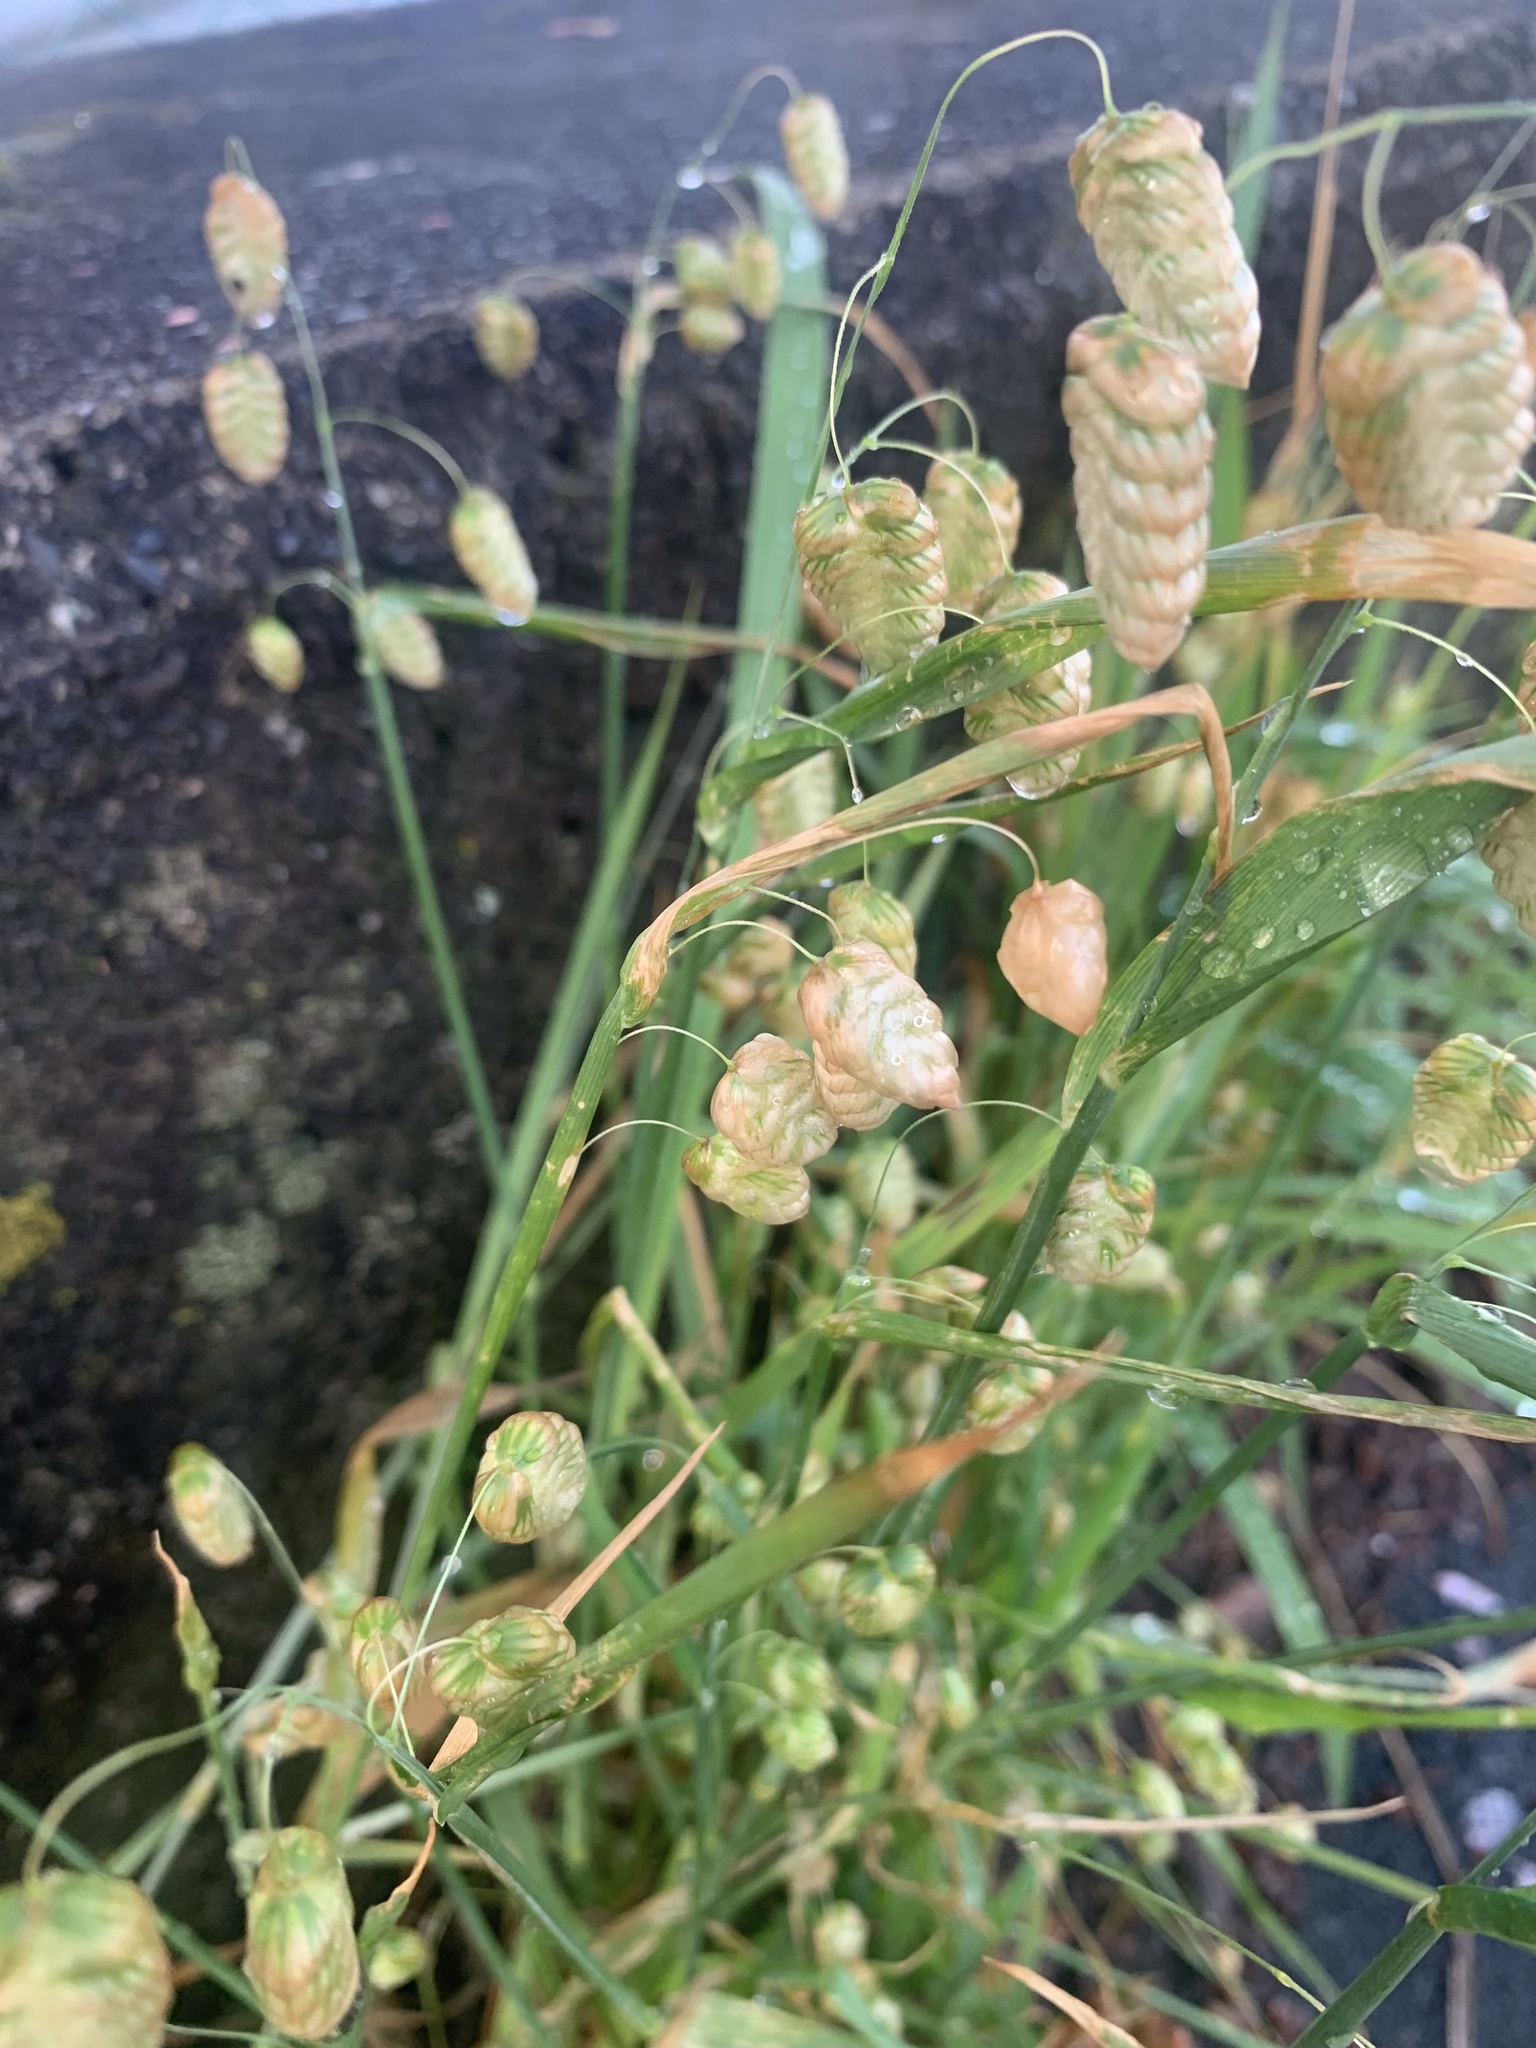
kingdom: Plantae
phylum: Tracheophyta
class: Liliopsida
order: Poales
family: Poaceae
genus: Briza
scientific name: Briza maxima
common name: Big quakinggrass
